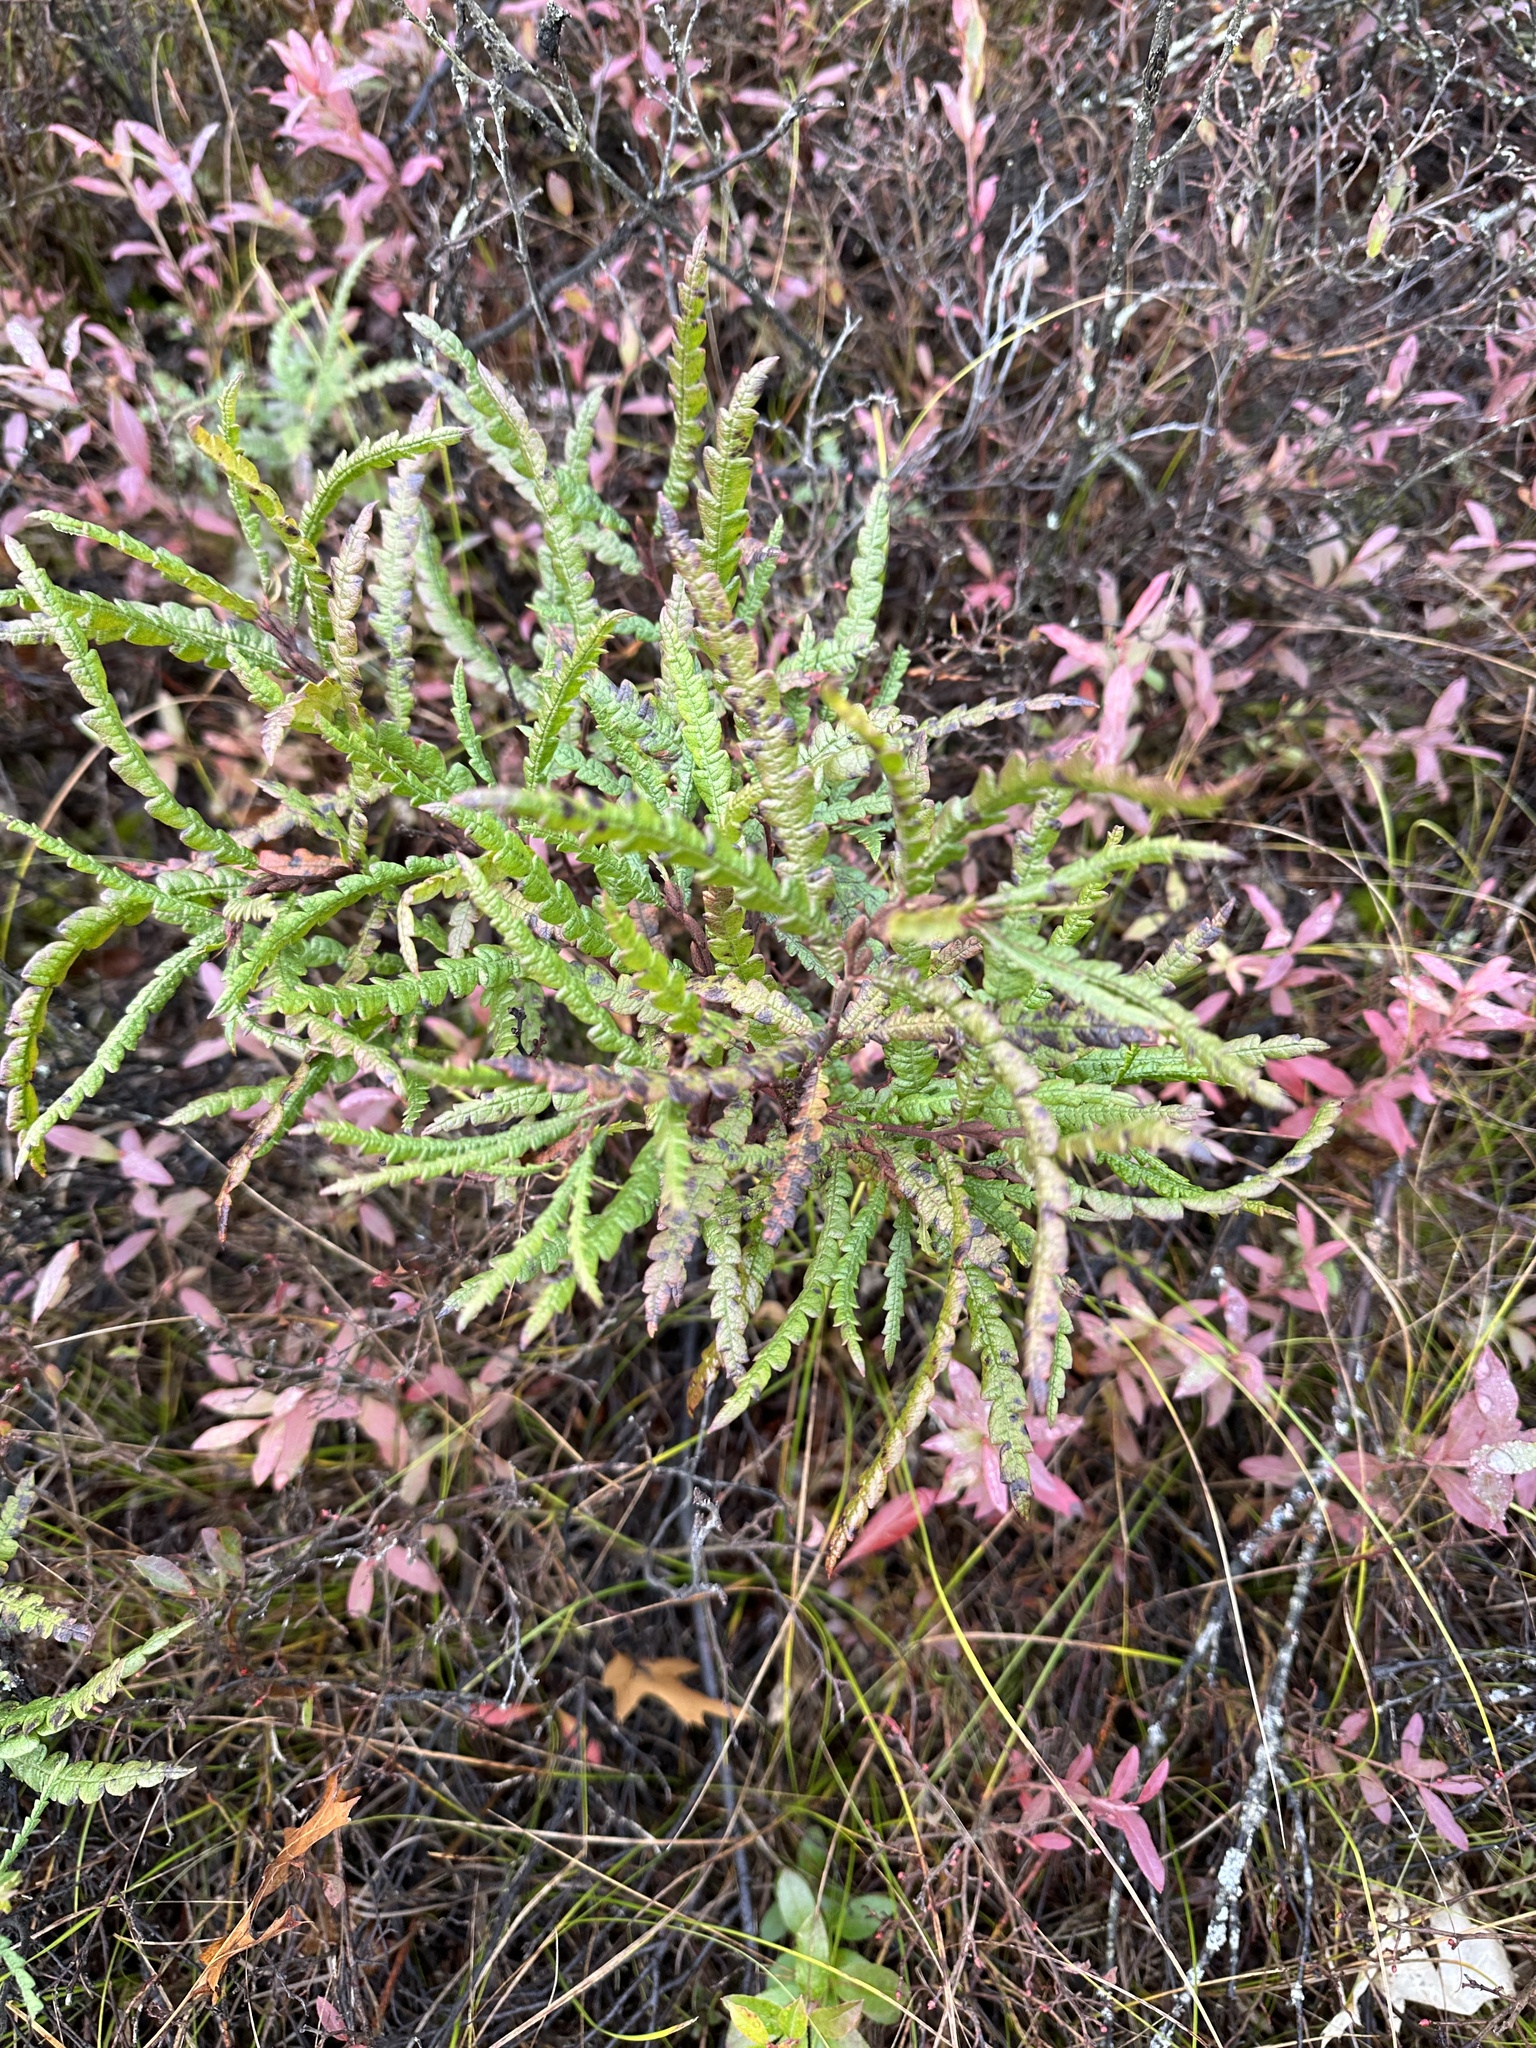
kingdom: Plantae
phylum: Tracheophyta
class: Magnoliopsida
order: Fagales
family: Myricaceae
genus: Comptonia
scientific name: Comptonia peregrina
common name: Sweet-fern
